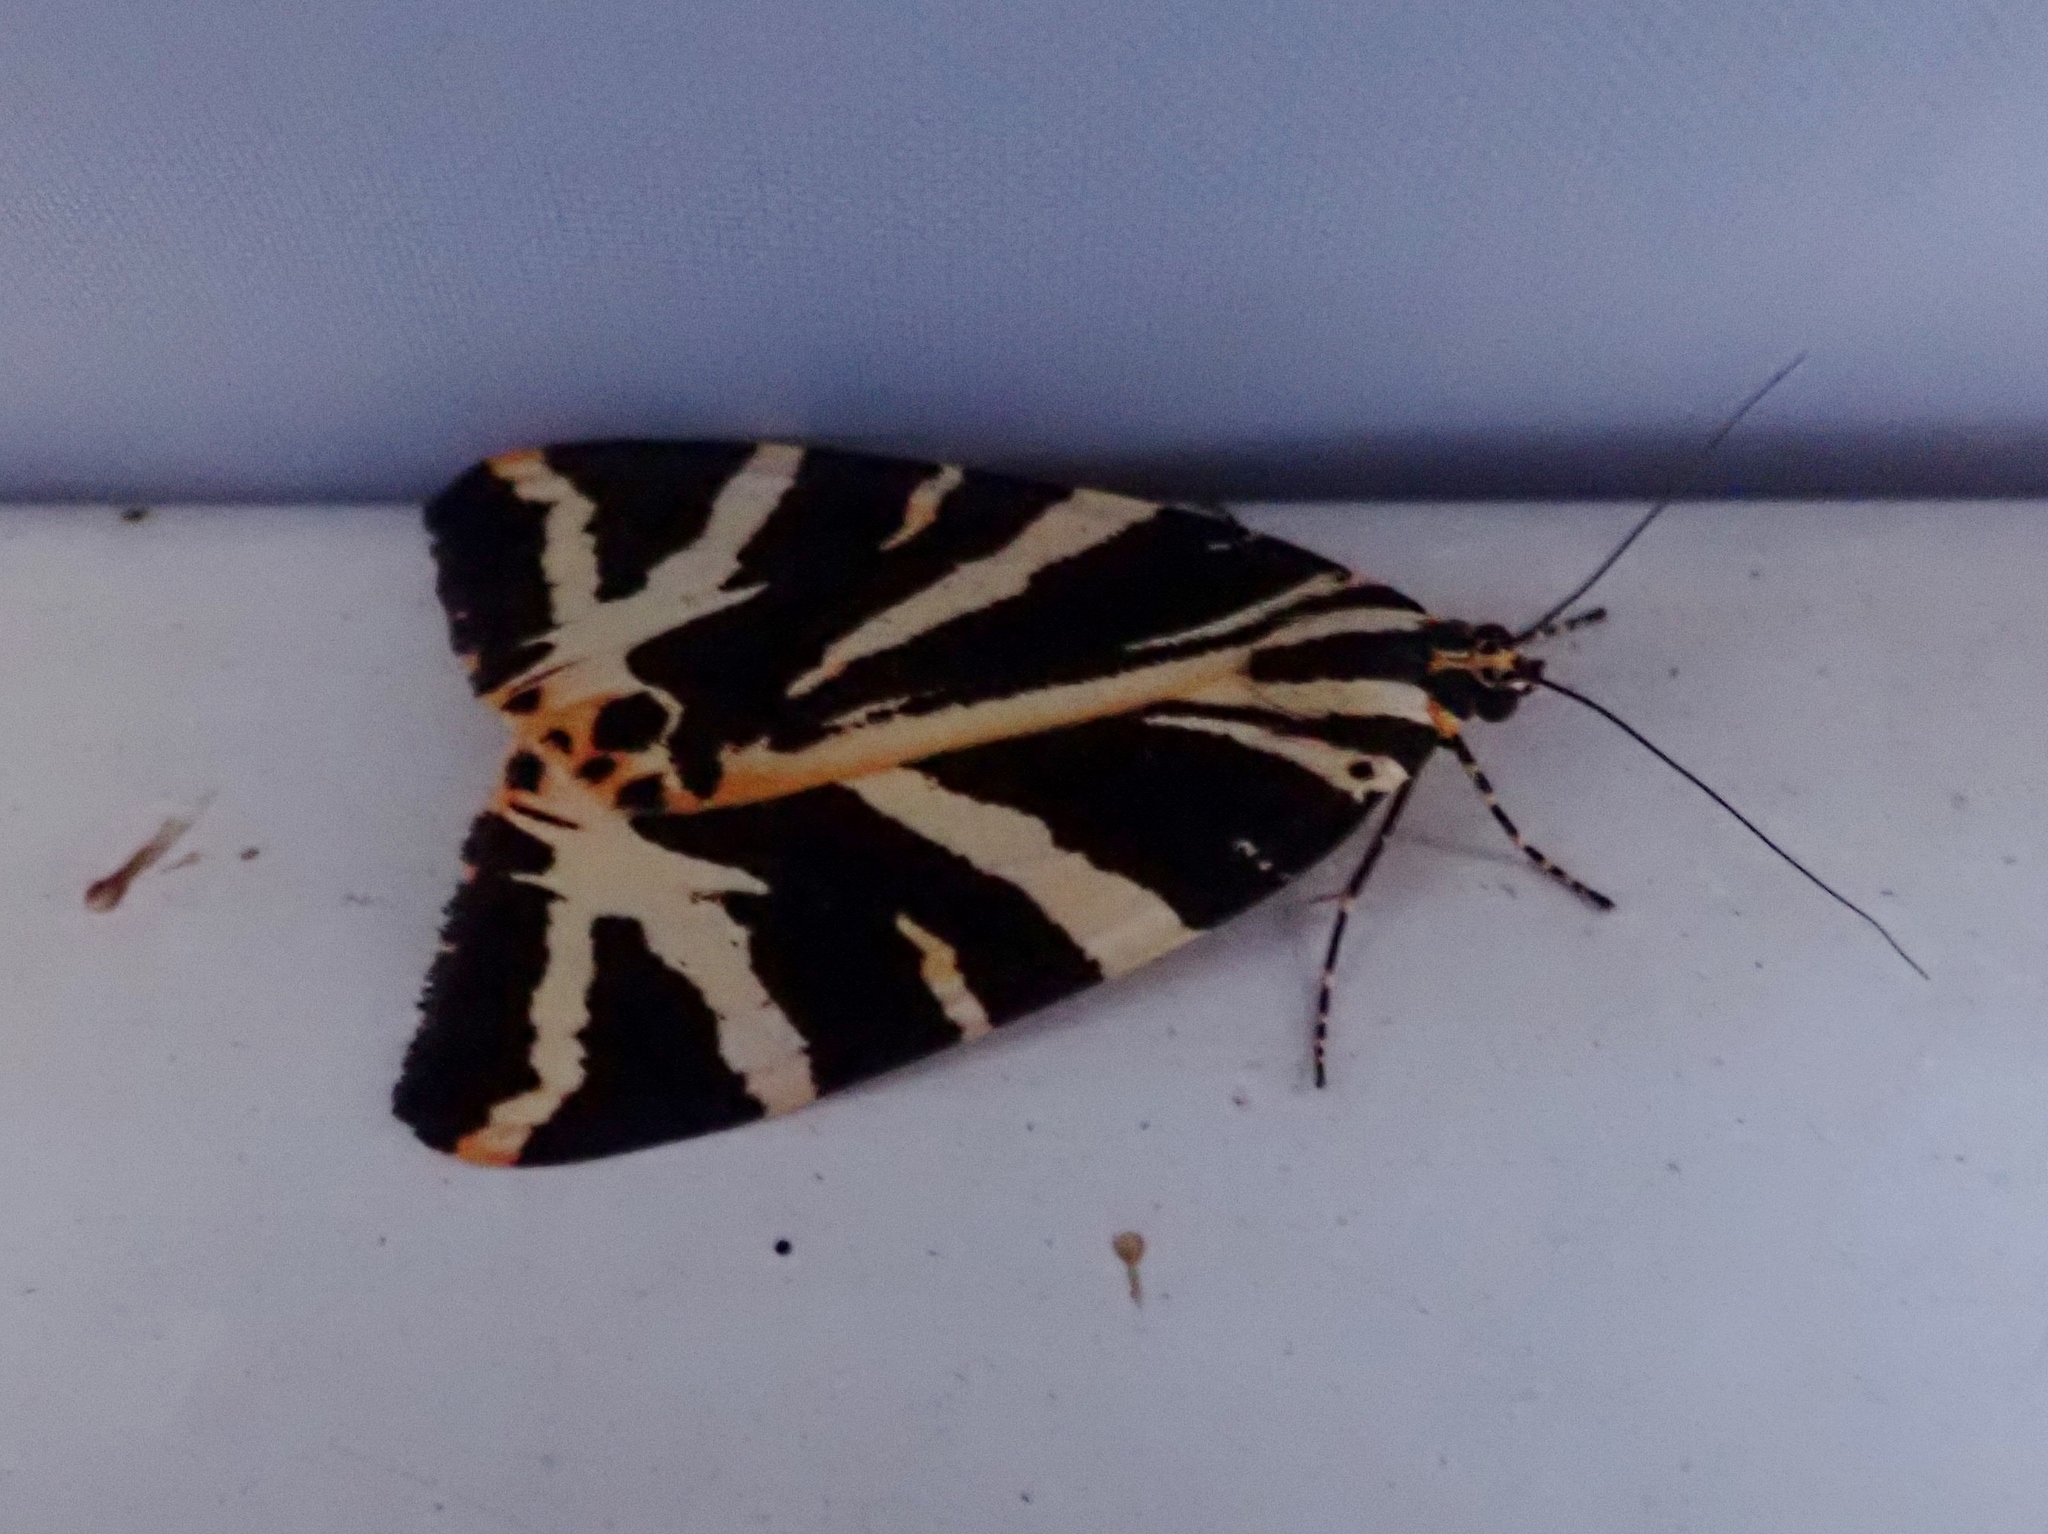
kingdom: Animalia
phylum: Arthropoda
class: Insecta
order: Lepidoptera
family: Erebidae
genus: Euplagia
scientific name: Euplagia quadripunctaria
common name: Jersey tiger
